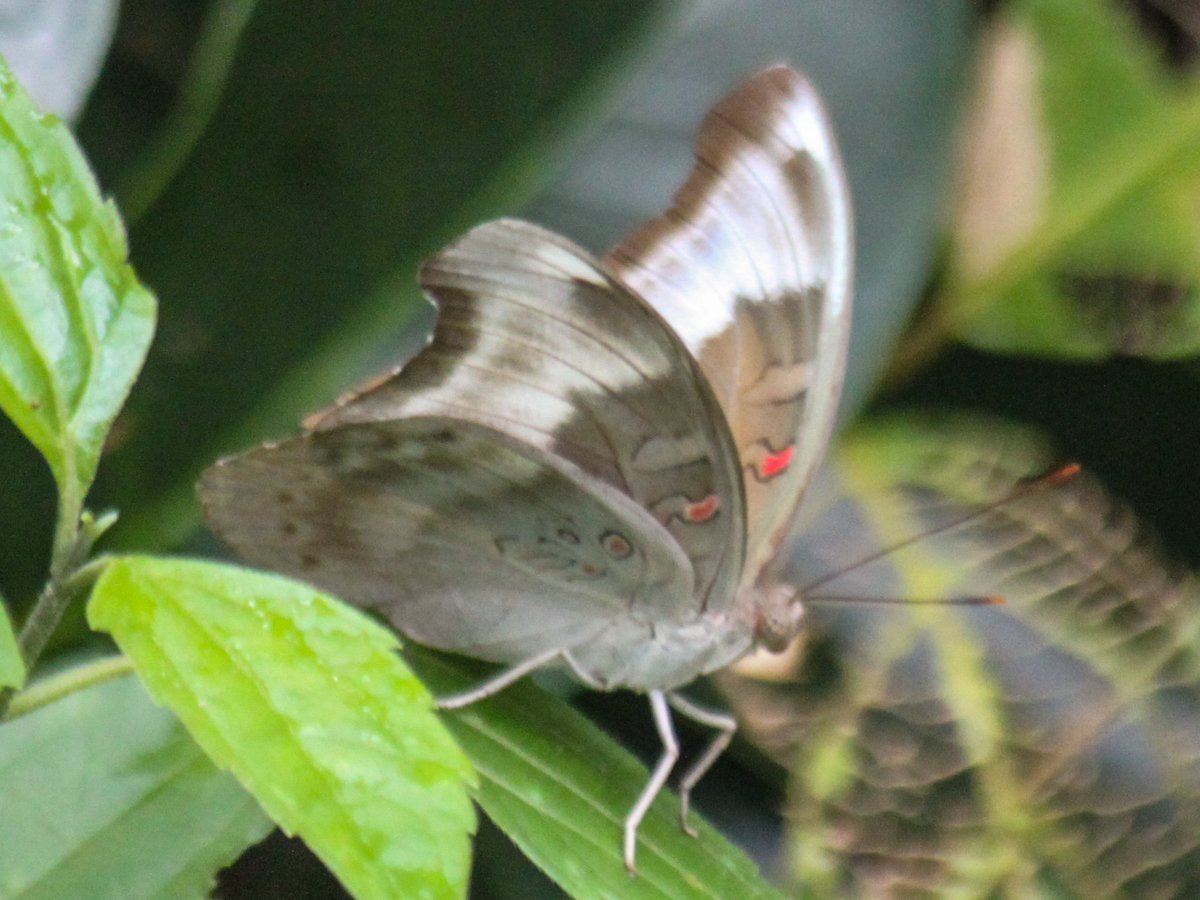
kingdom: Animalia
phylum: Arthropoda
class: Insecta
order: Lepidoptera
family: Nymphalidae
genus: Euthalia
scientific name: Euthalia Dophla evelina
